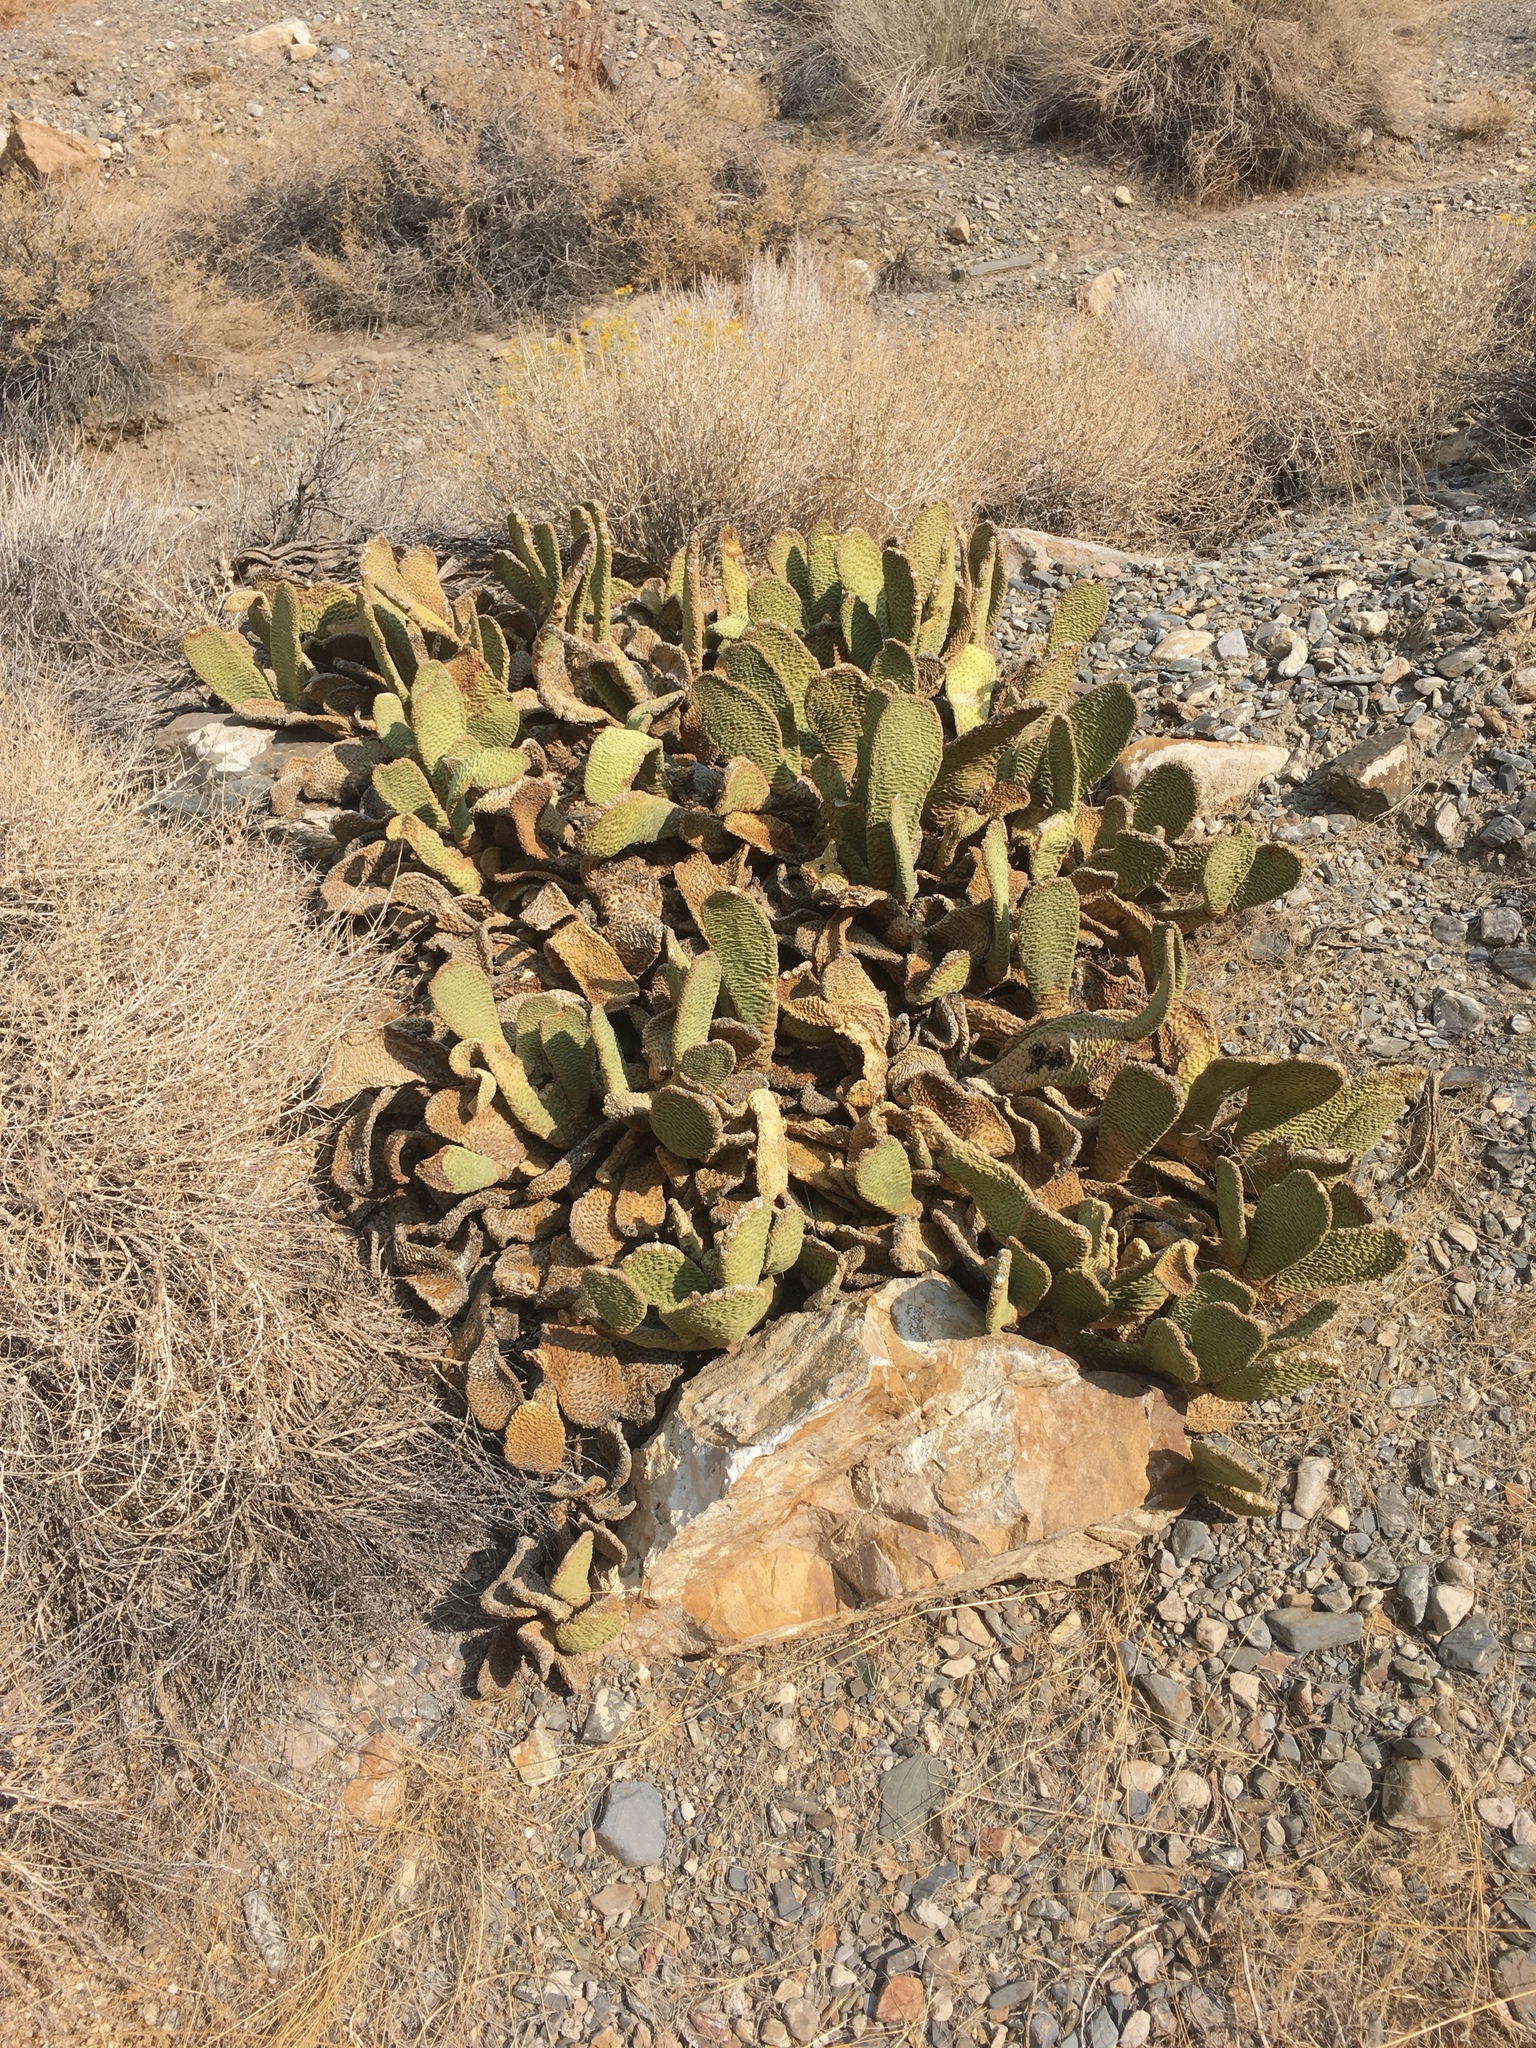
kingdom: Plantae
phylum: Tracheophyta
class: Magnoliopsida
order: Caryophyllales
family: Cactaceae
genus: Opuntia
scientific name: Opuntia basilaris
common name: Beavertail prickly-pear
